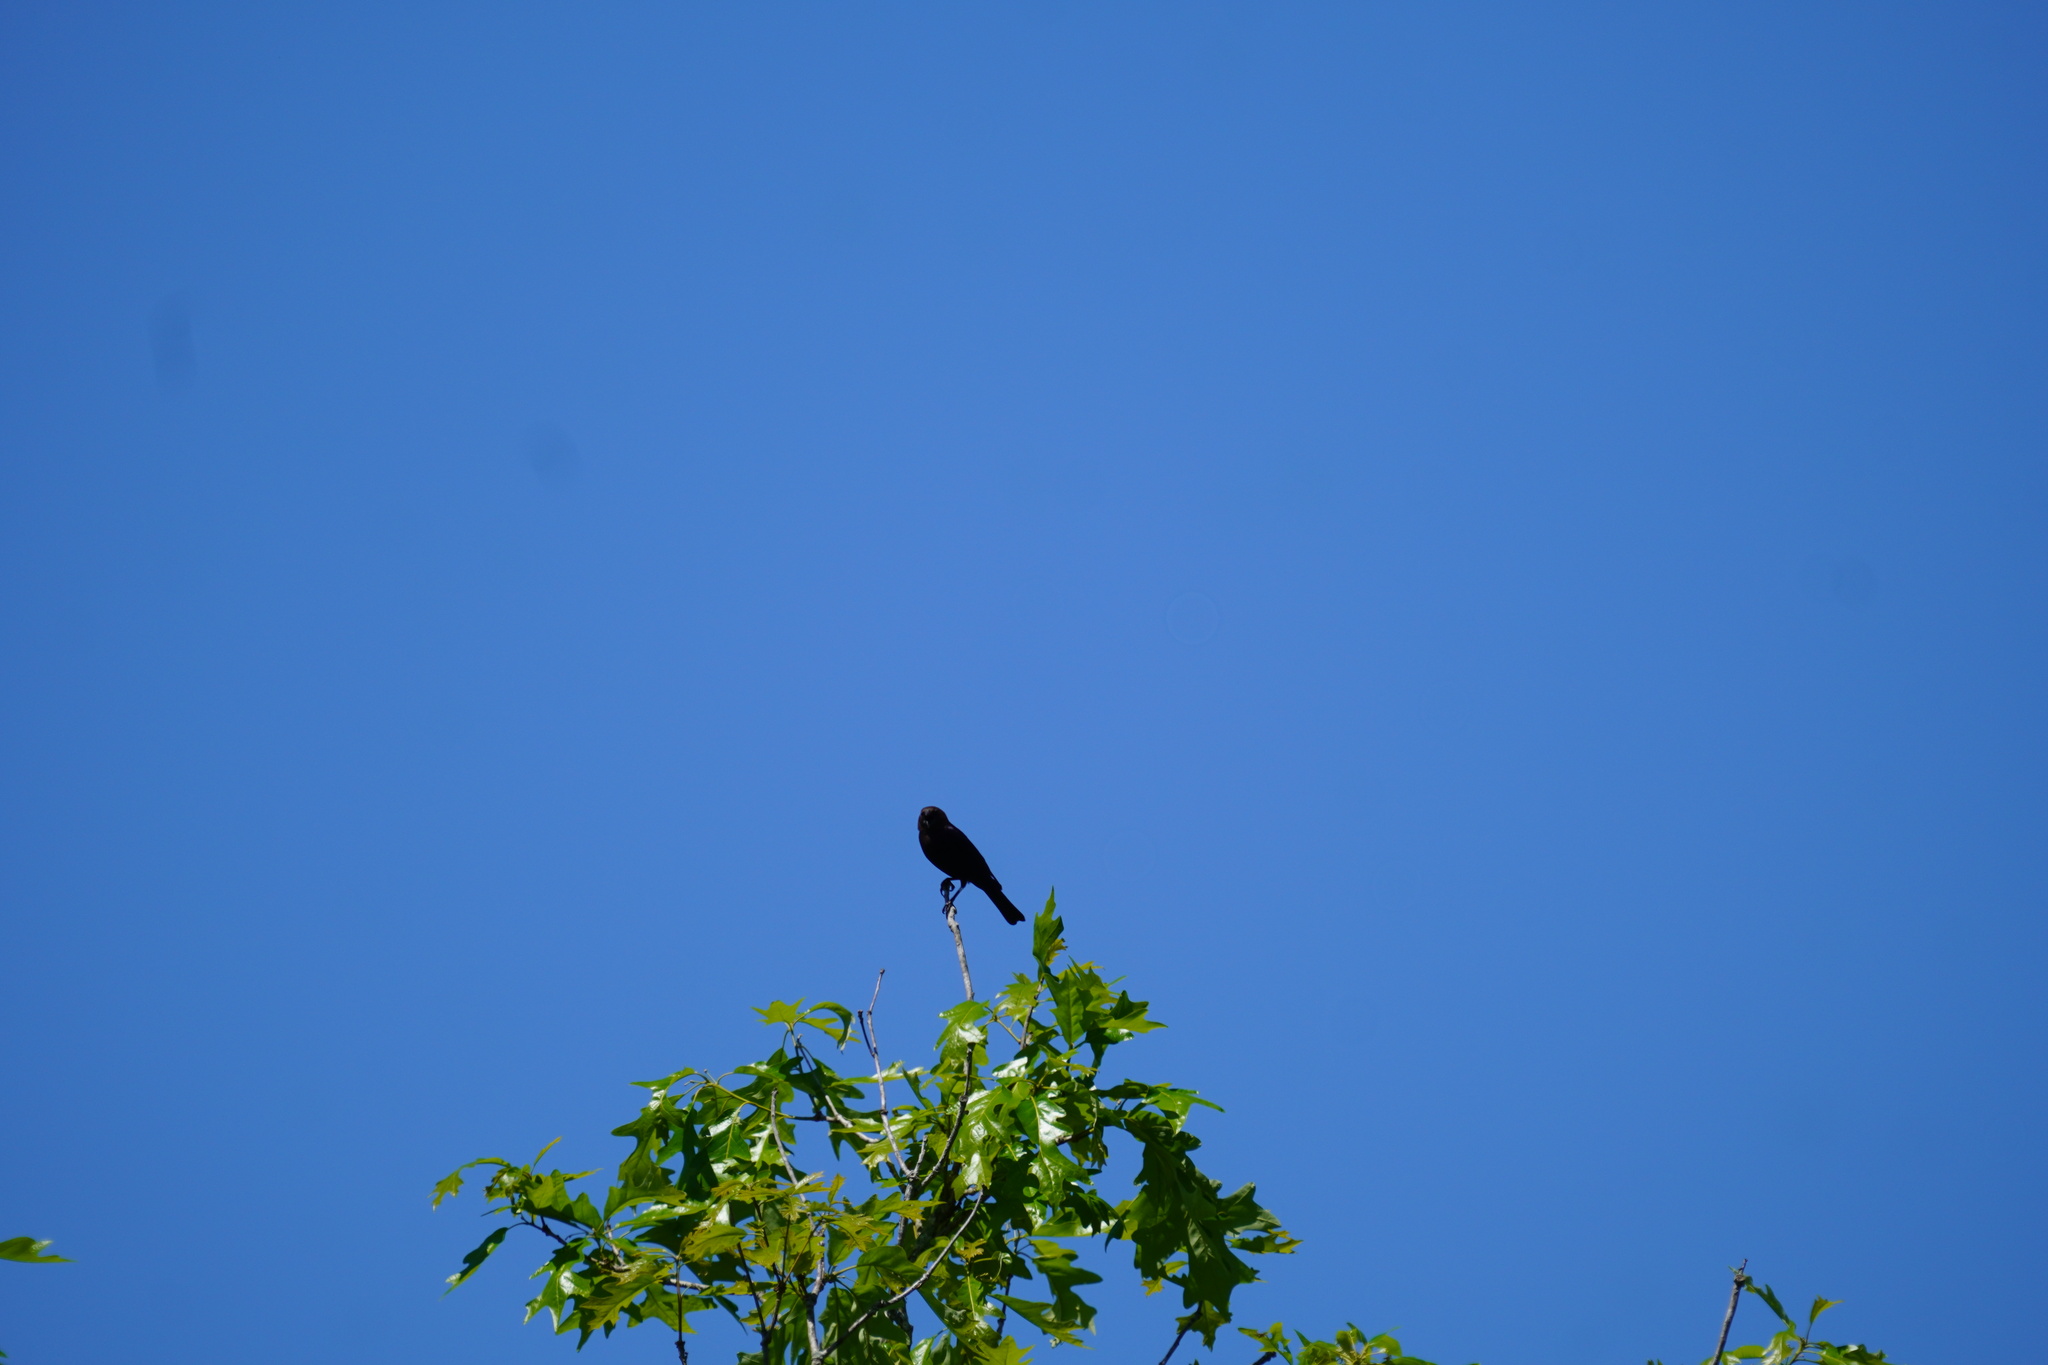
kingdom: Animalia
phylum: Chordata
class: Aves
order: Passeriformes
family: Icteridae
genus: Agelaius
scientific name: Agelaius phoeniceus
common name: Red-winged blackbird
